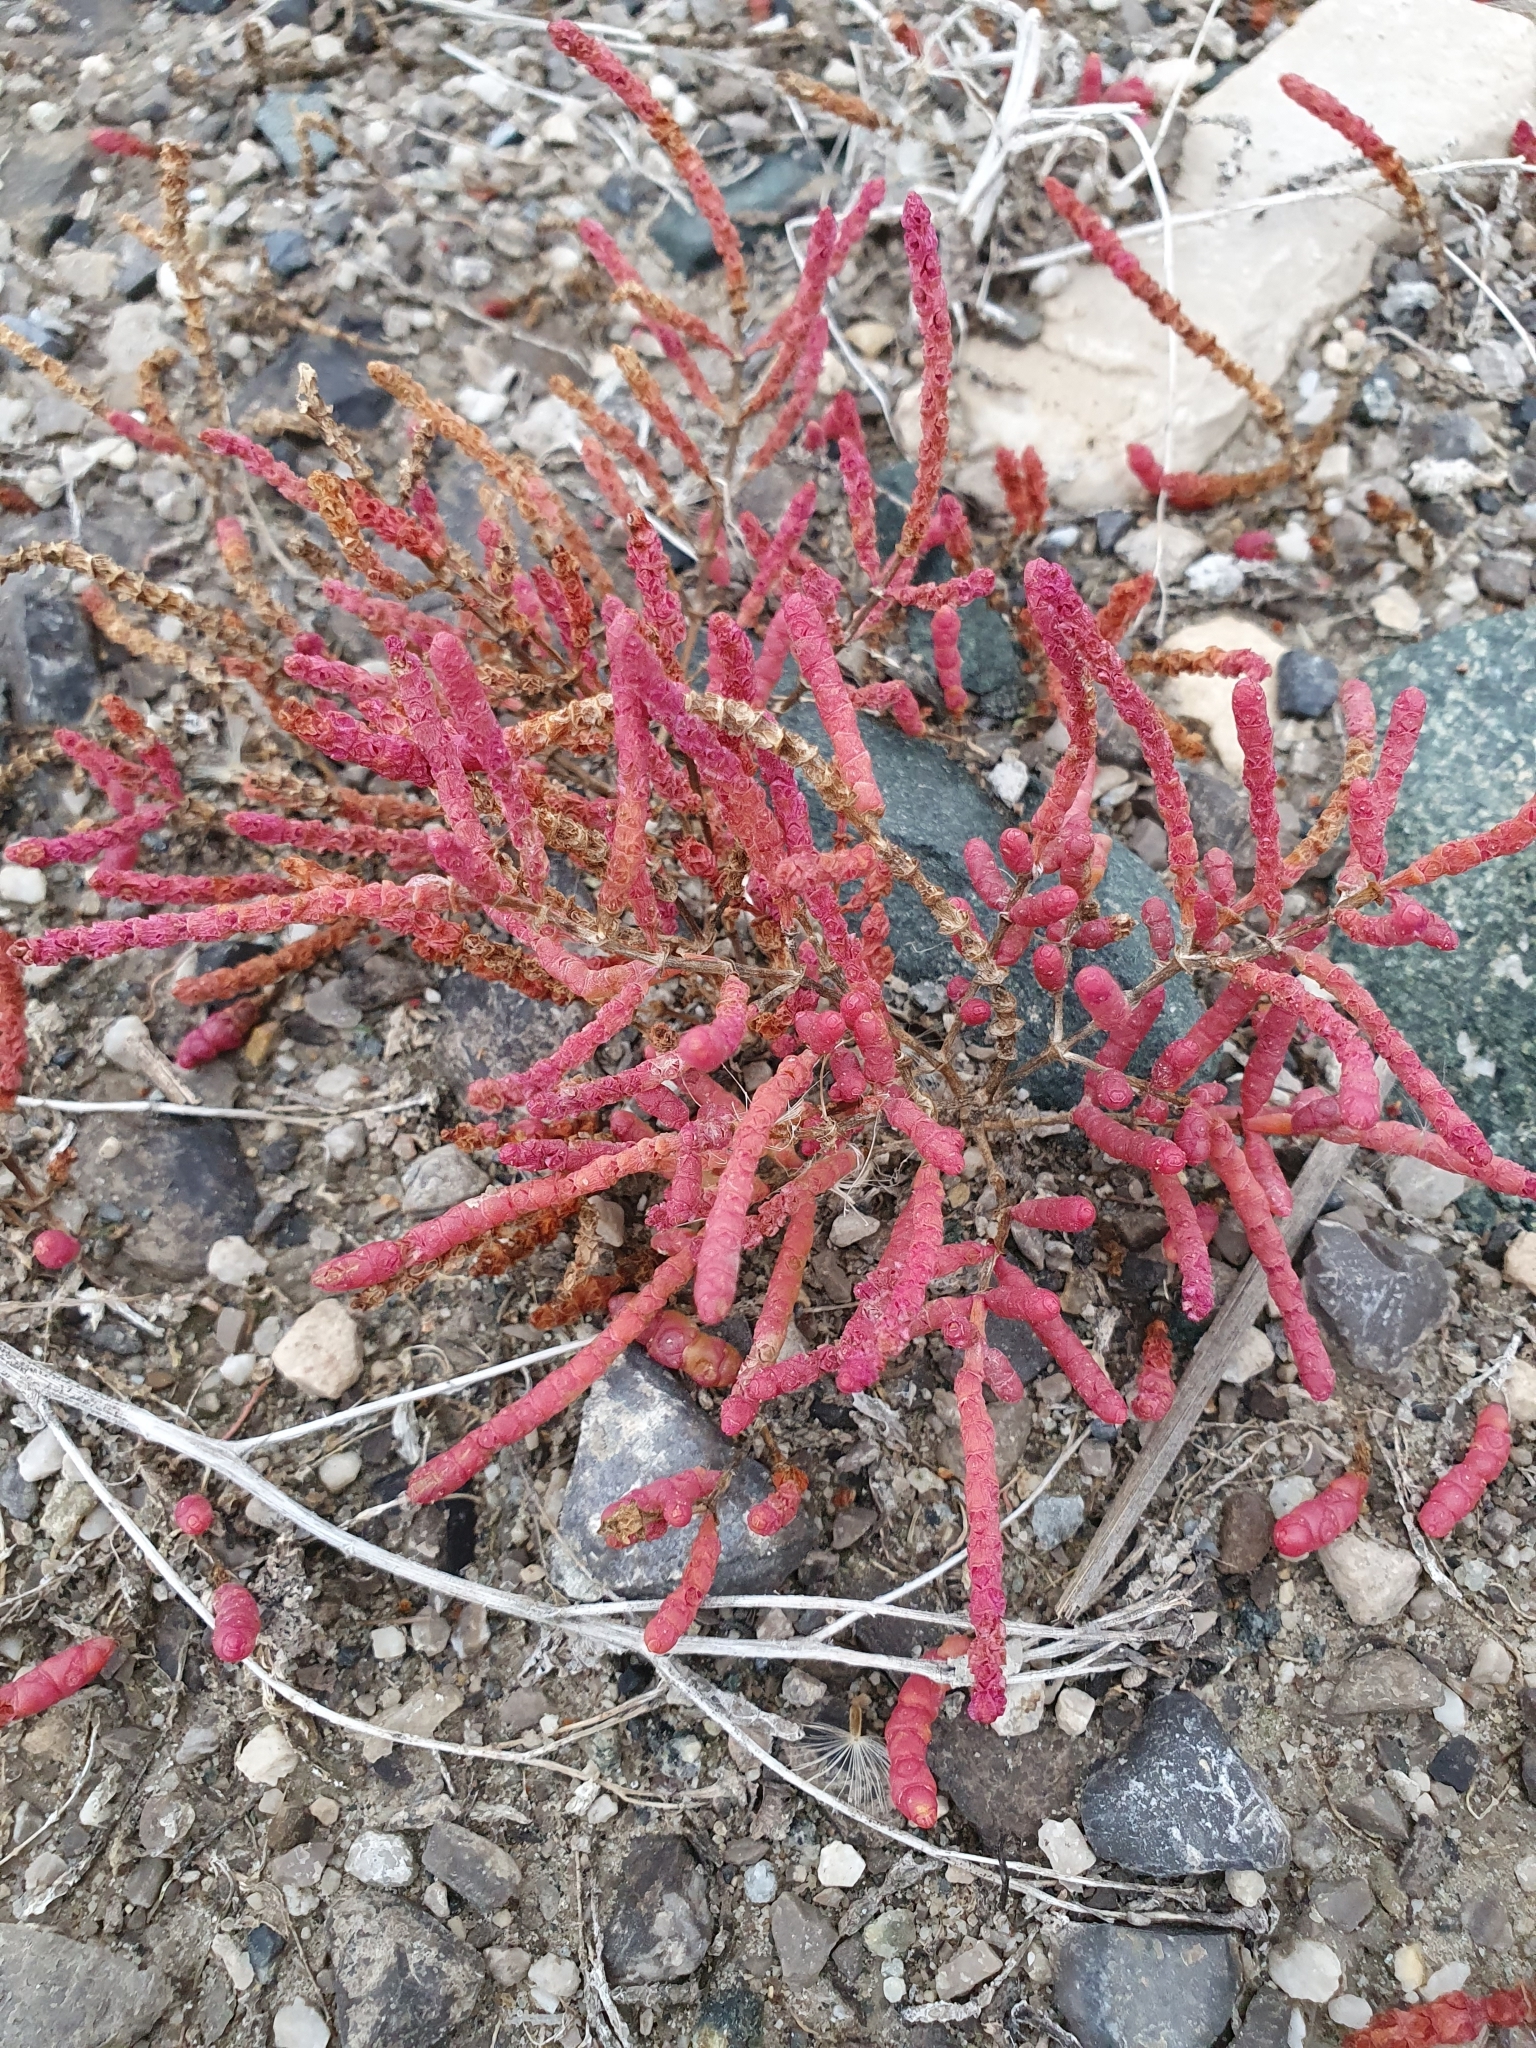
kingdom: Plantae
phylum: Tracheophyta
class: Magnoliopsida
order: Caryophyllales
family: Amaranthaceae
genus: Salicornia
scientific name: Salicornia perennans
